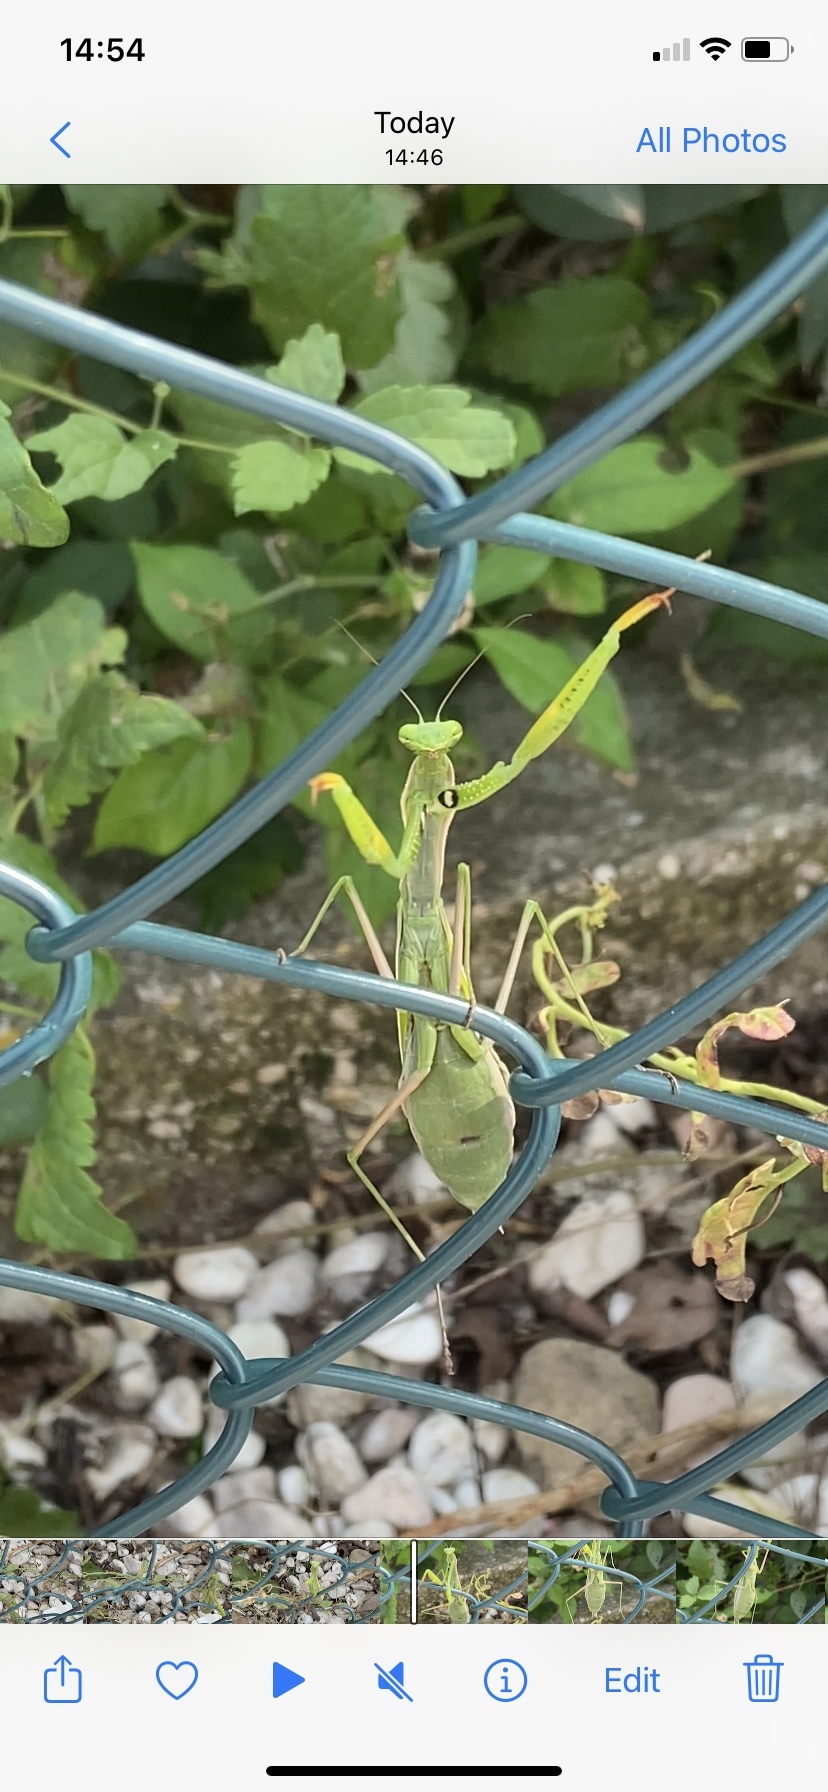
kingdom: Animalia
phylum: Arthropoda
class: Insecta
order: Mantodea
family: Mantidae
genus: Mantis
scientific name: Mantis religiosa
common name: Praying mantis
